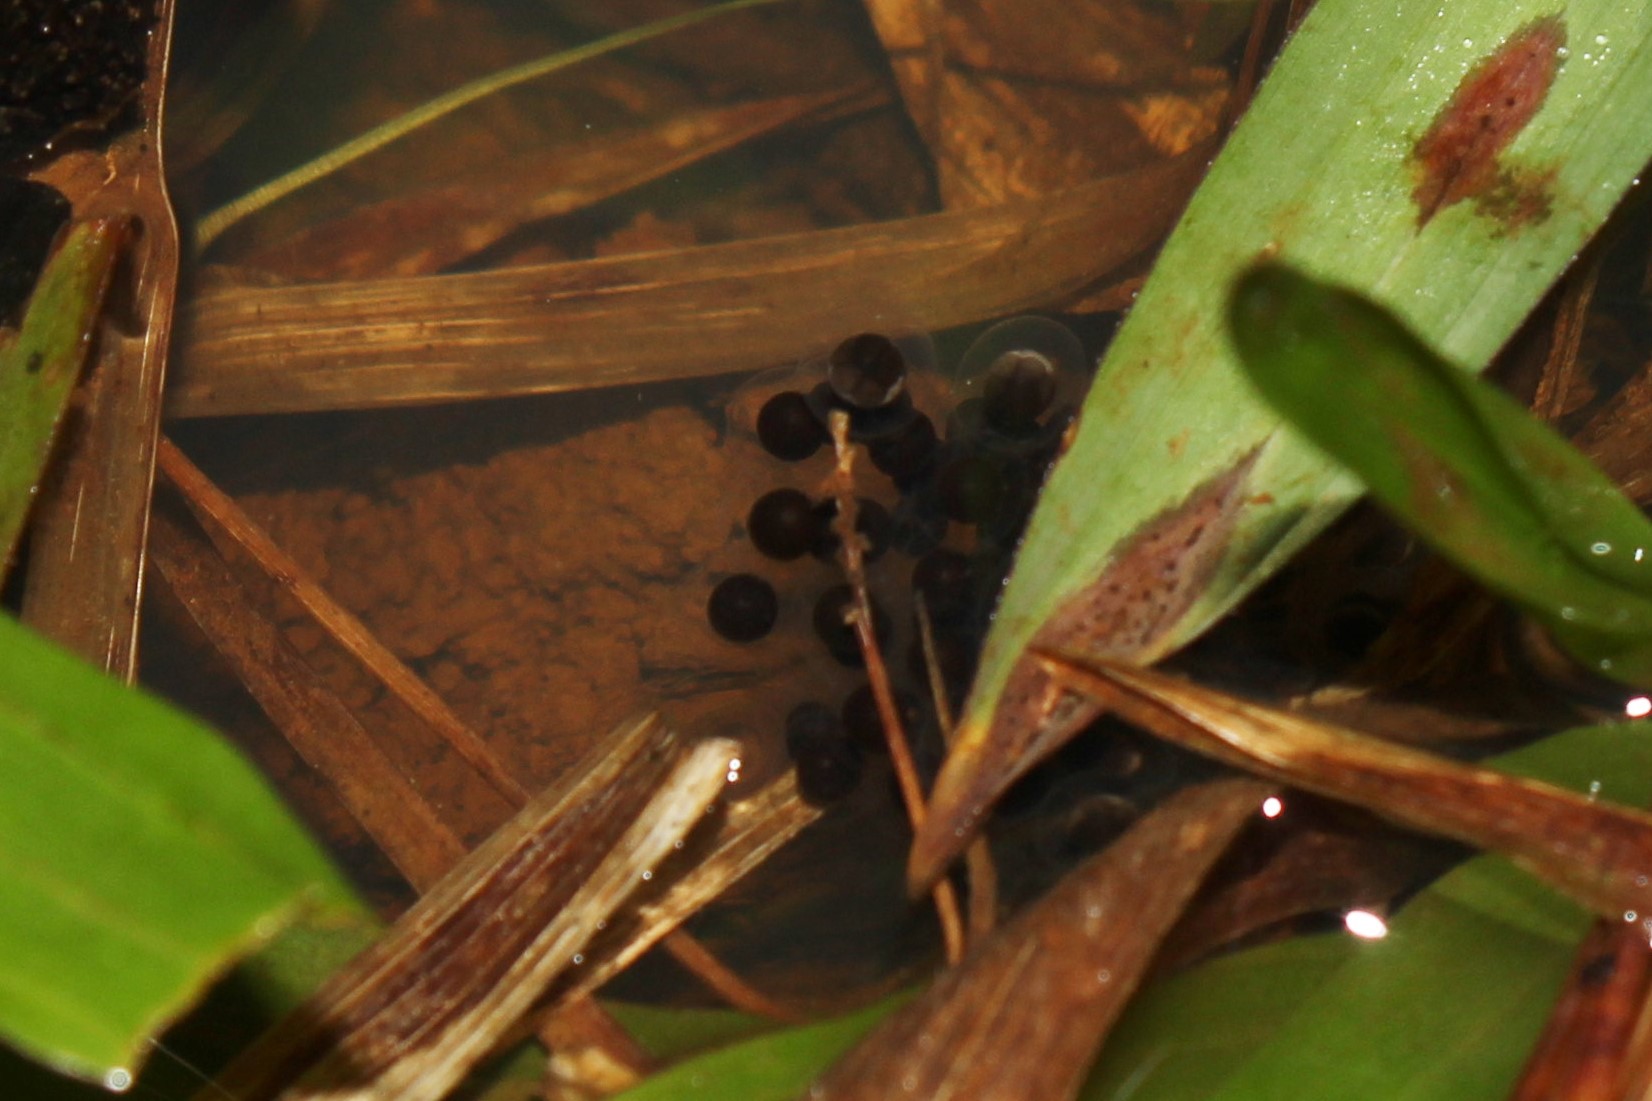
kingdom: Animalia
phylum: Chordata
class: Amphibia
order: Anura
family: Bufonidae
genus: Melanophryniscus
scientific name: Melanophryniscus simplex
